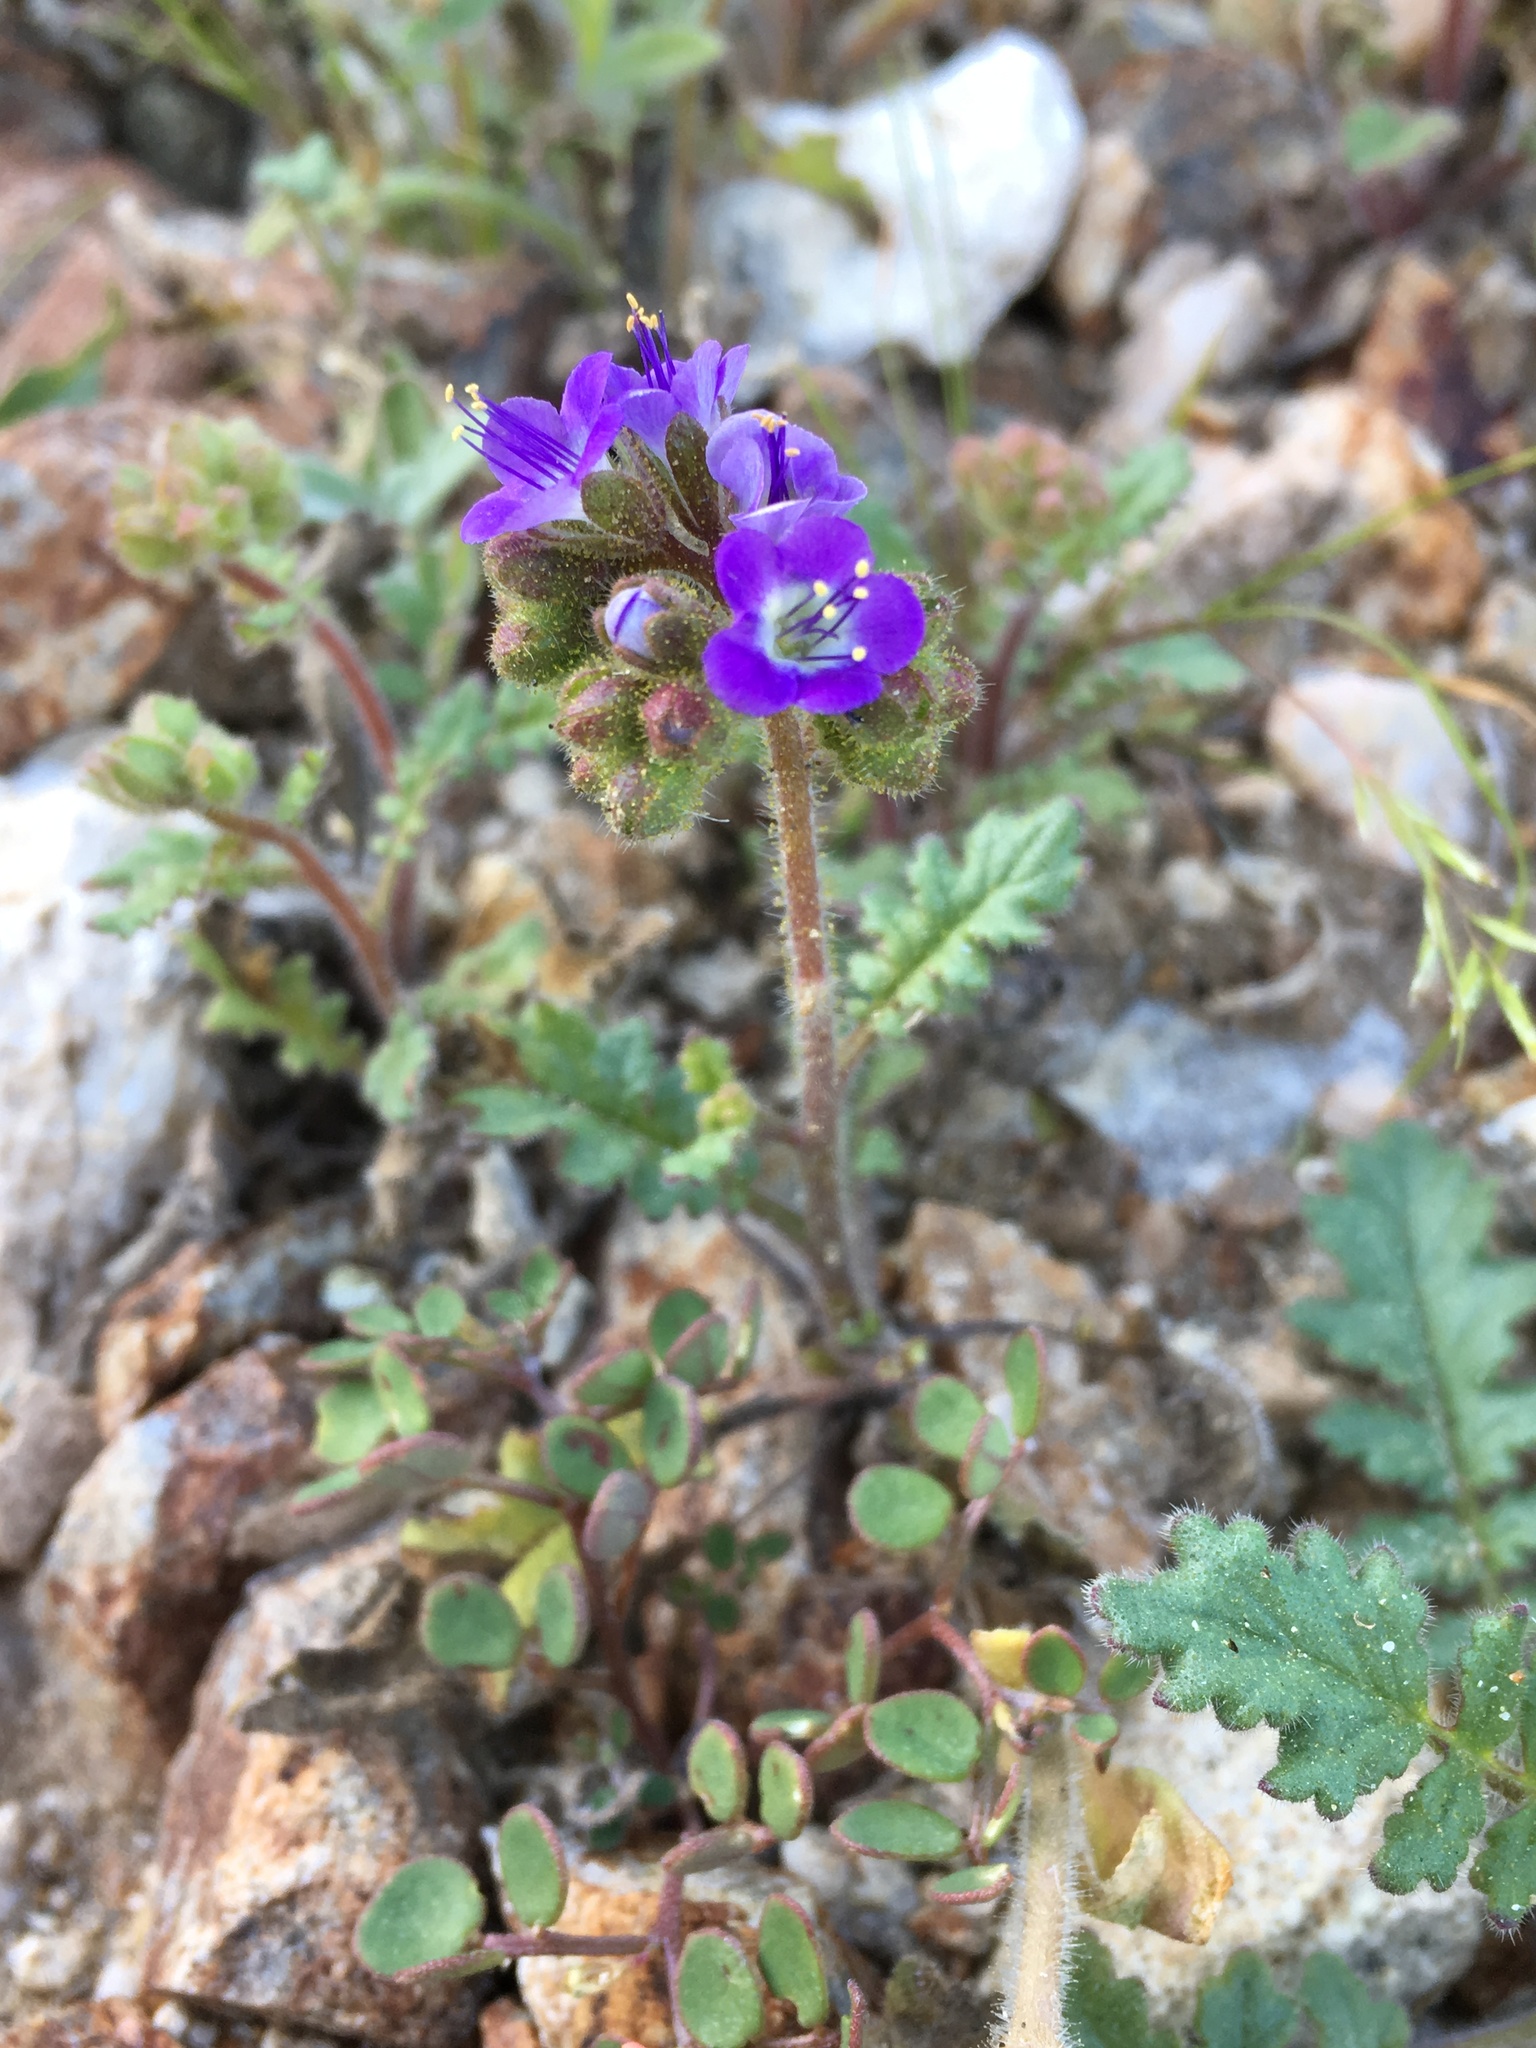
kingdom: Plantae
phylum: Tracheophyta
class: Magnoliopsida
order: Boraginales
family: Hydrophyllaceae
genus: Phacelia
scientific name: Phacelia crenulata
